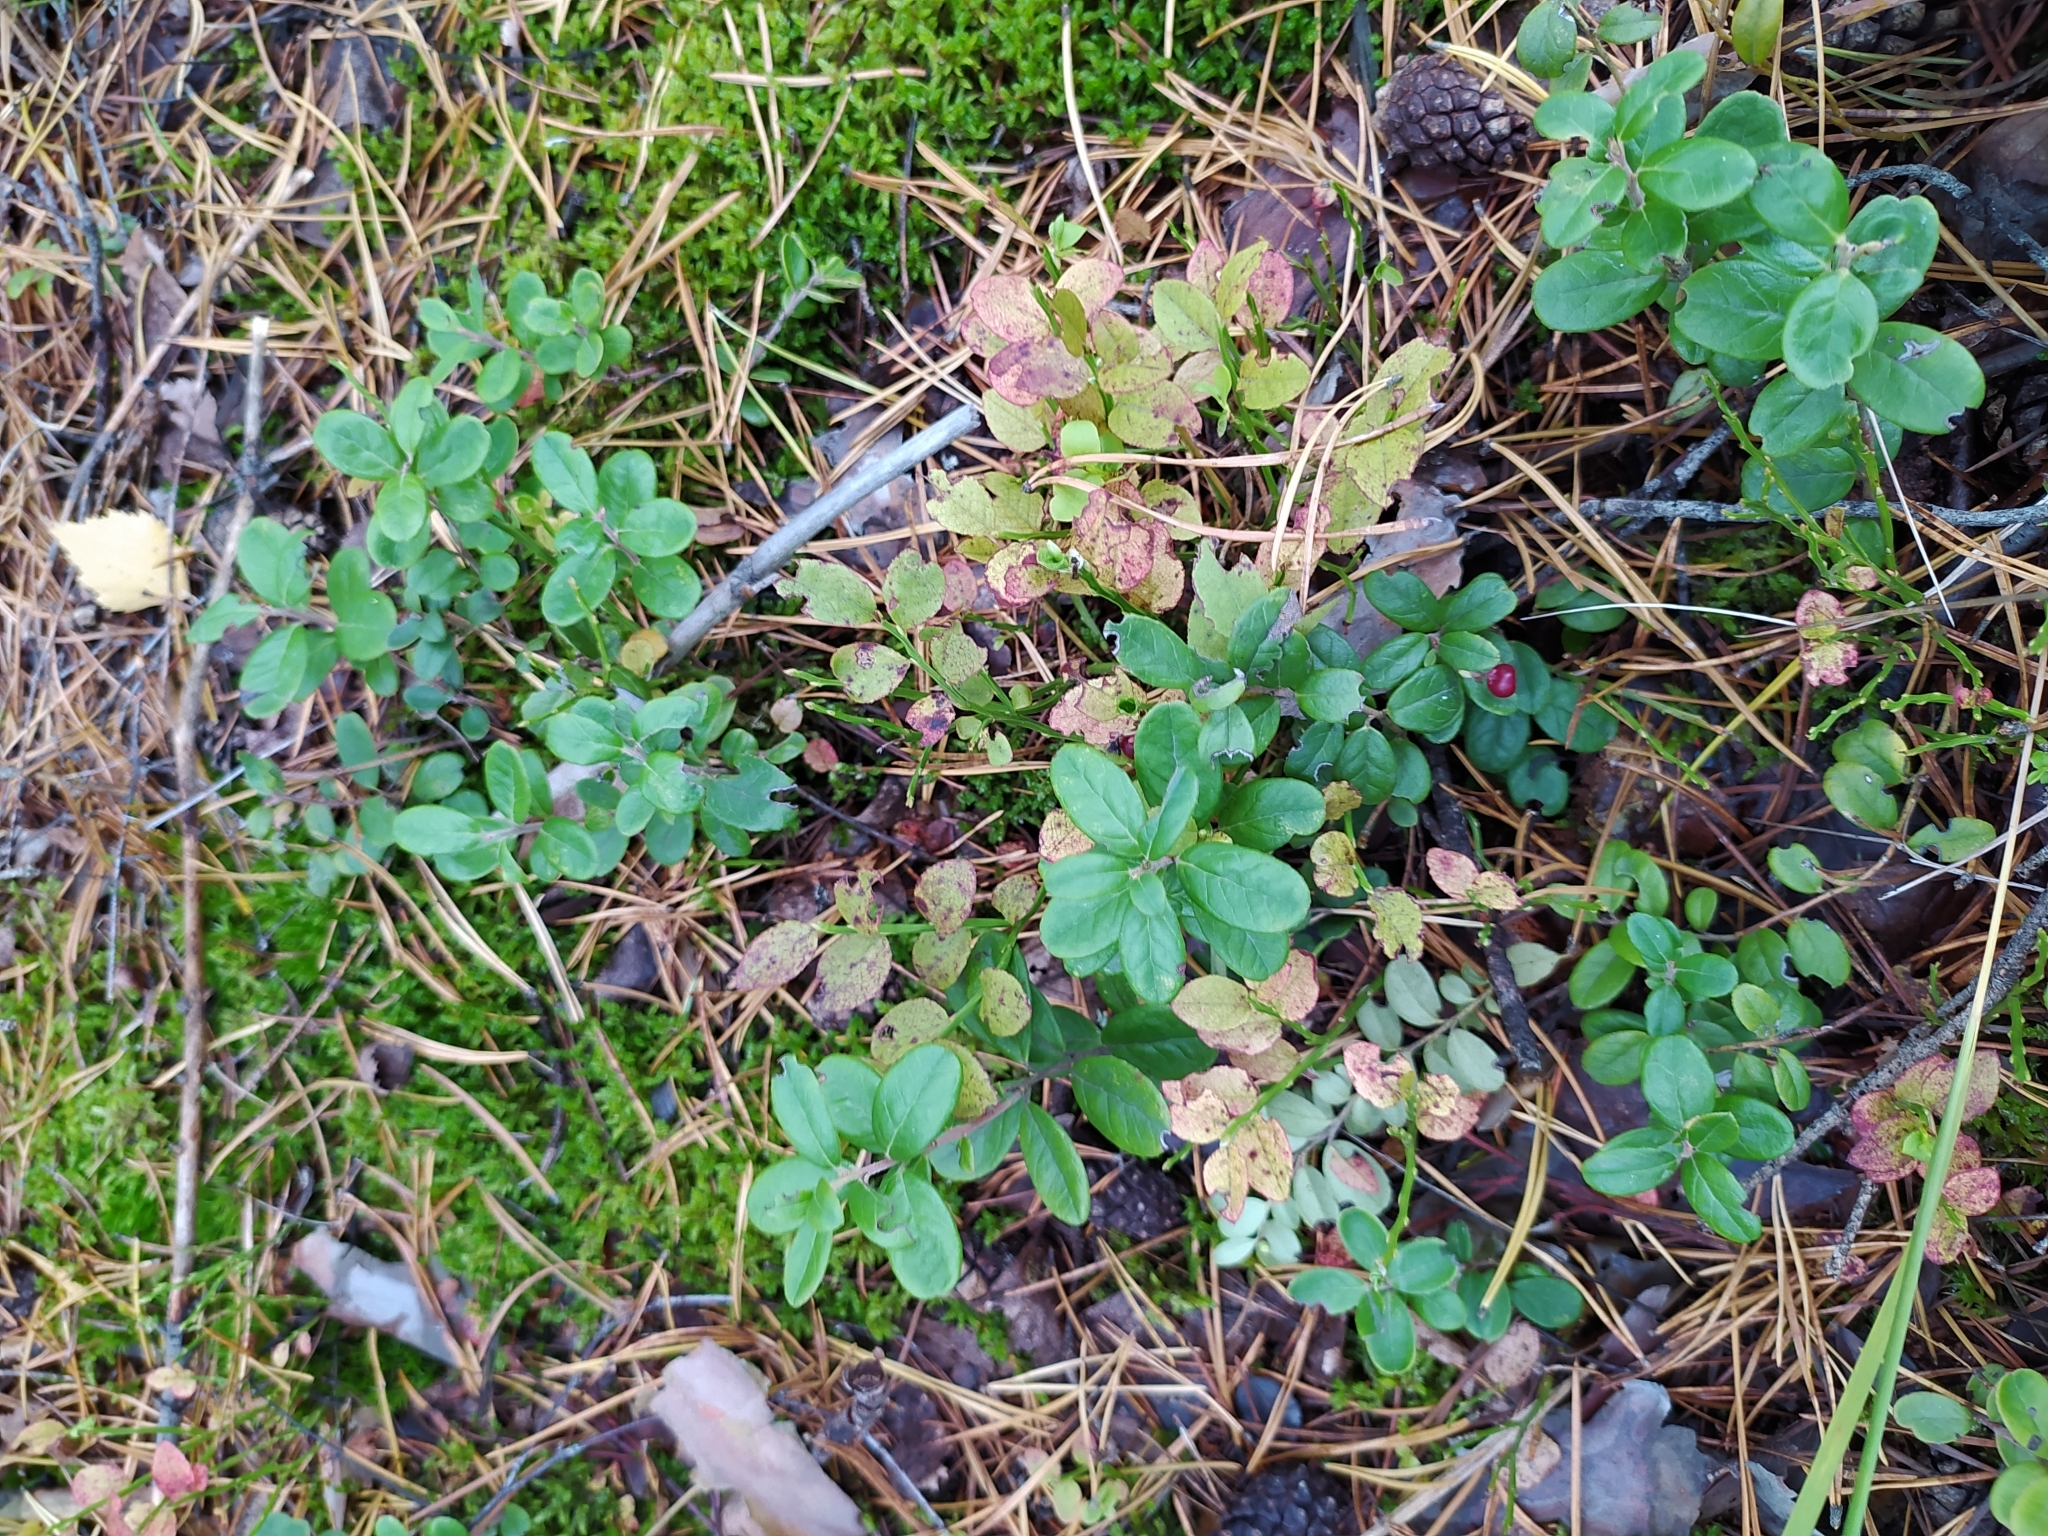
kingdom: Plantae
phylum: Tracheophyta
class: Magnoliopsida
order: Ericales
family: Ericaceae
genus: Vaccinium
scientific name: Vaccinium vitis-idaea
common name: Cowberry
